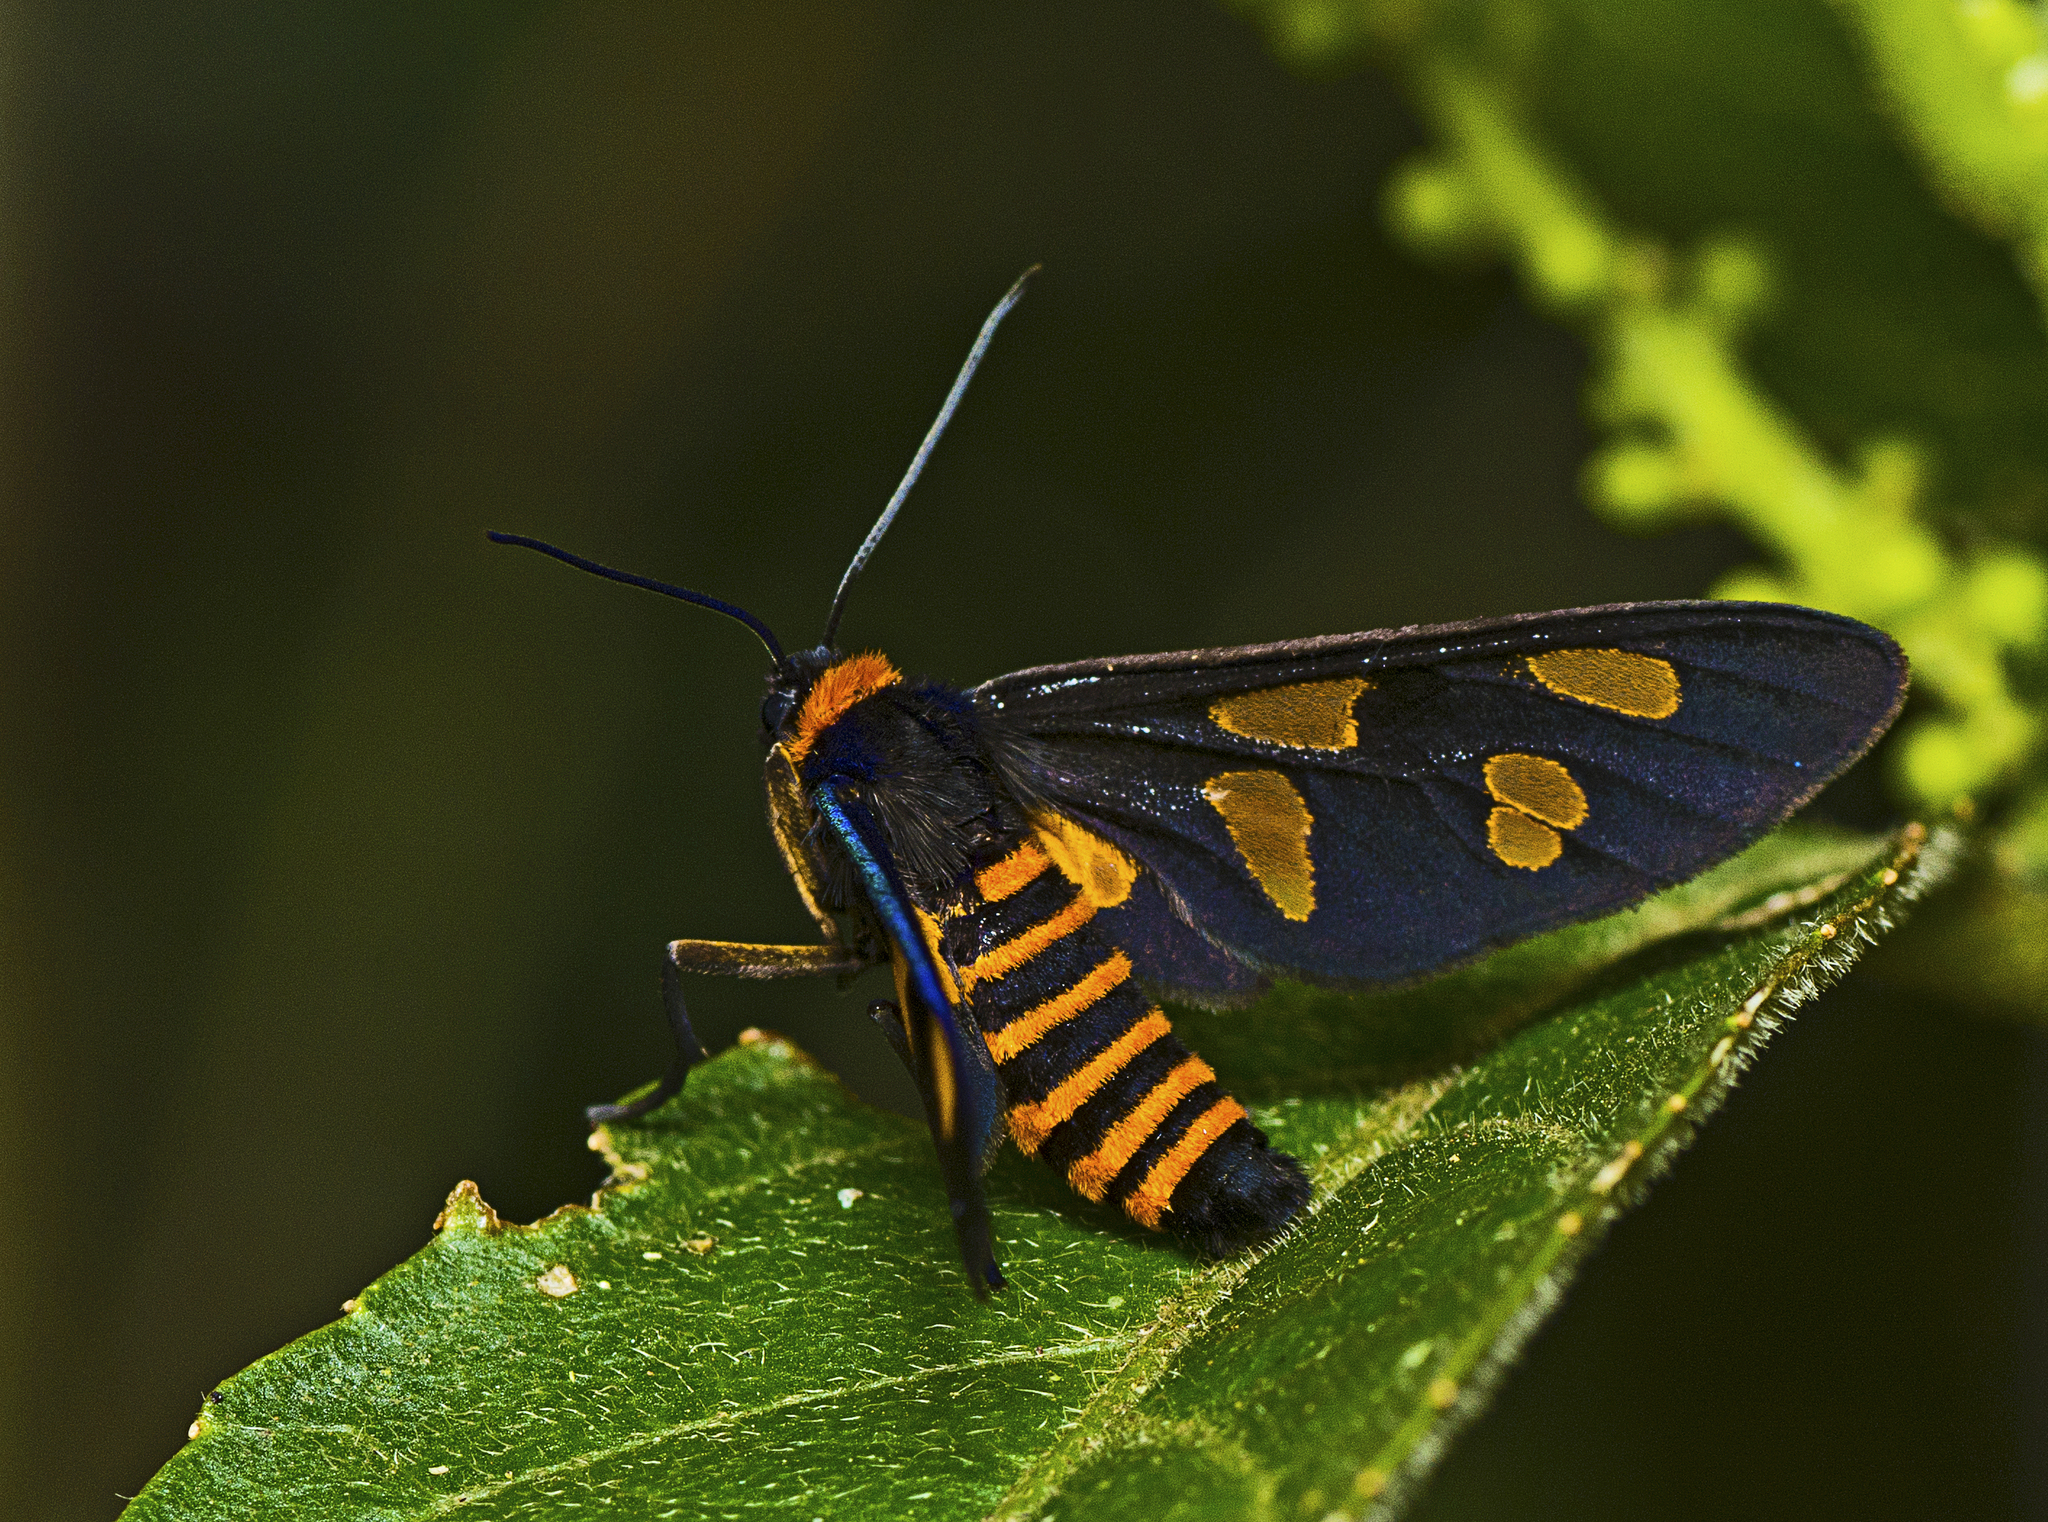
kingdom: Animalia
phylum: Arthropoda
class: Insecta
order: Lepidoptera
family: Erebidae
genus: Eressa
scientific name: Eressa angustipenna
